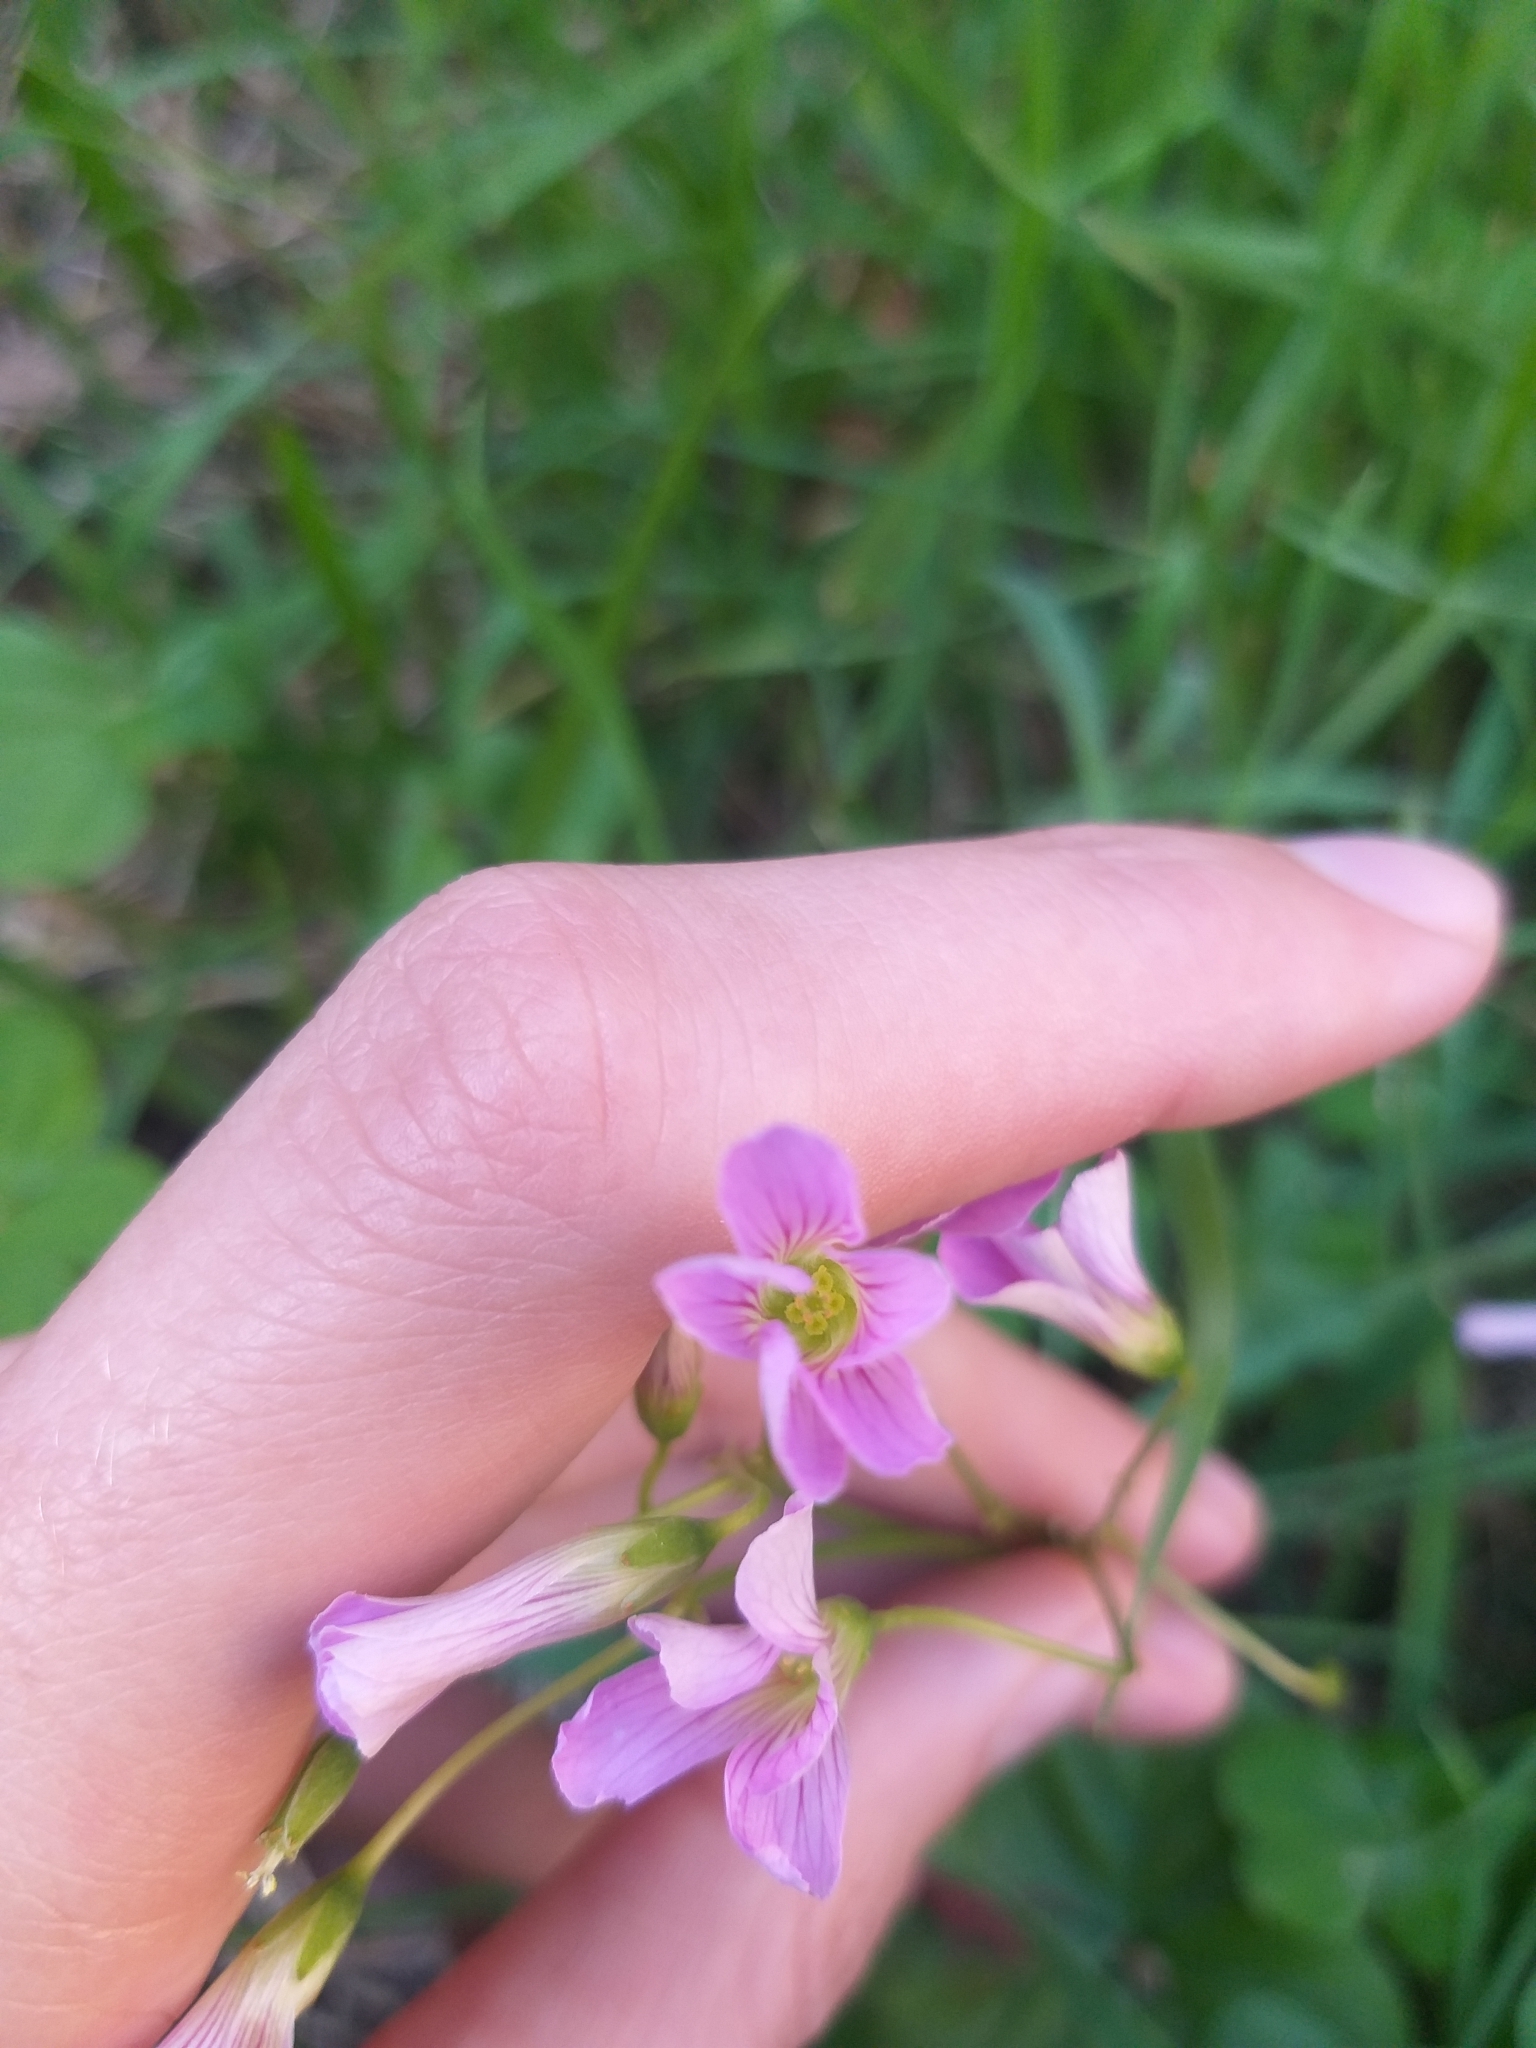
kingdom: Plantae
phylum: Tracheophyta
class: Magnoliopsida
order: Oxalidales
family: Oxalidaceae
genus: Oxalis
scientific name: Oxalis debilis
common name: Large-flowered pink-sorrel
